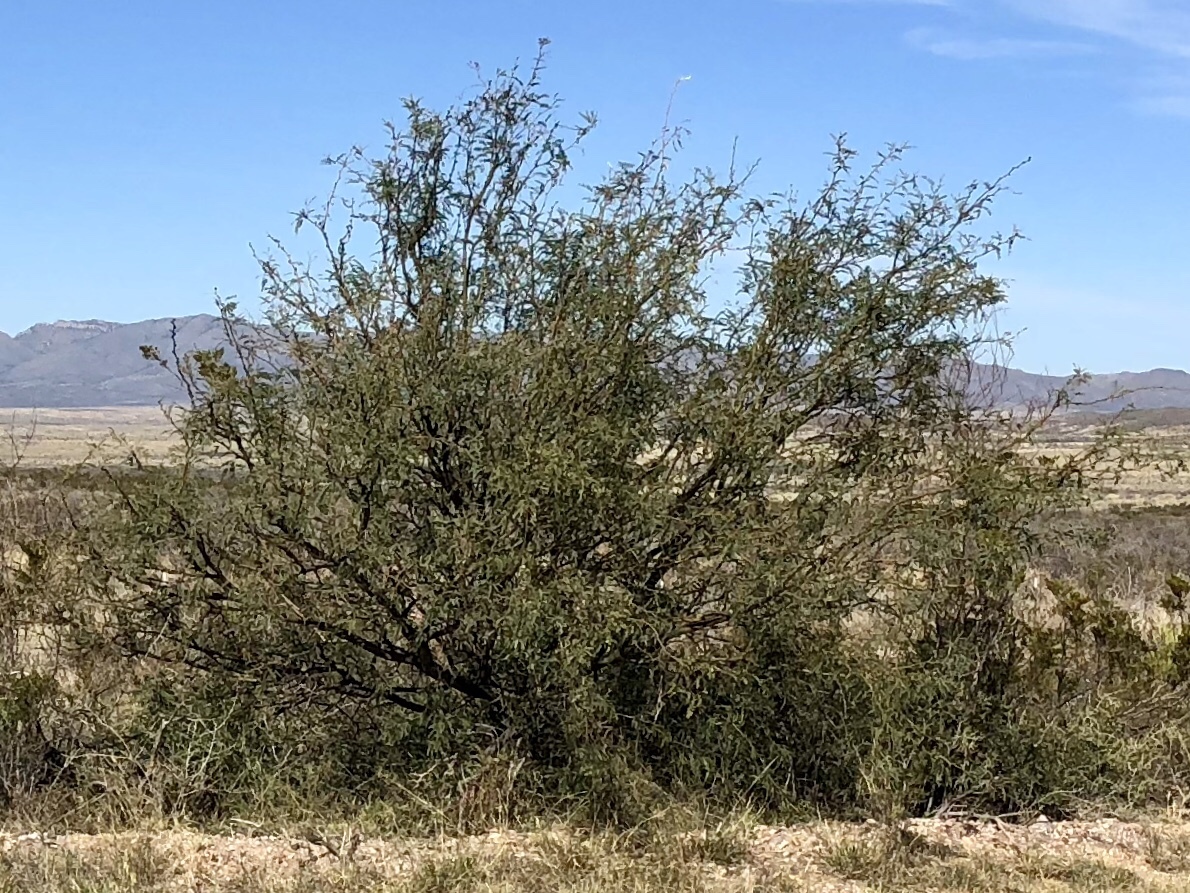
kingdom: Plantae
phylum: Tracheophyta
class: Magnoliopsida
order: Fabales
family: Fabaceae
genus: Prosopis
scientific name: Prosopis glandulosa
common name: Honey mesquite
